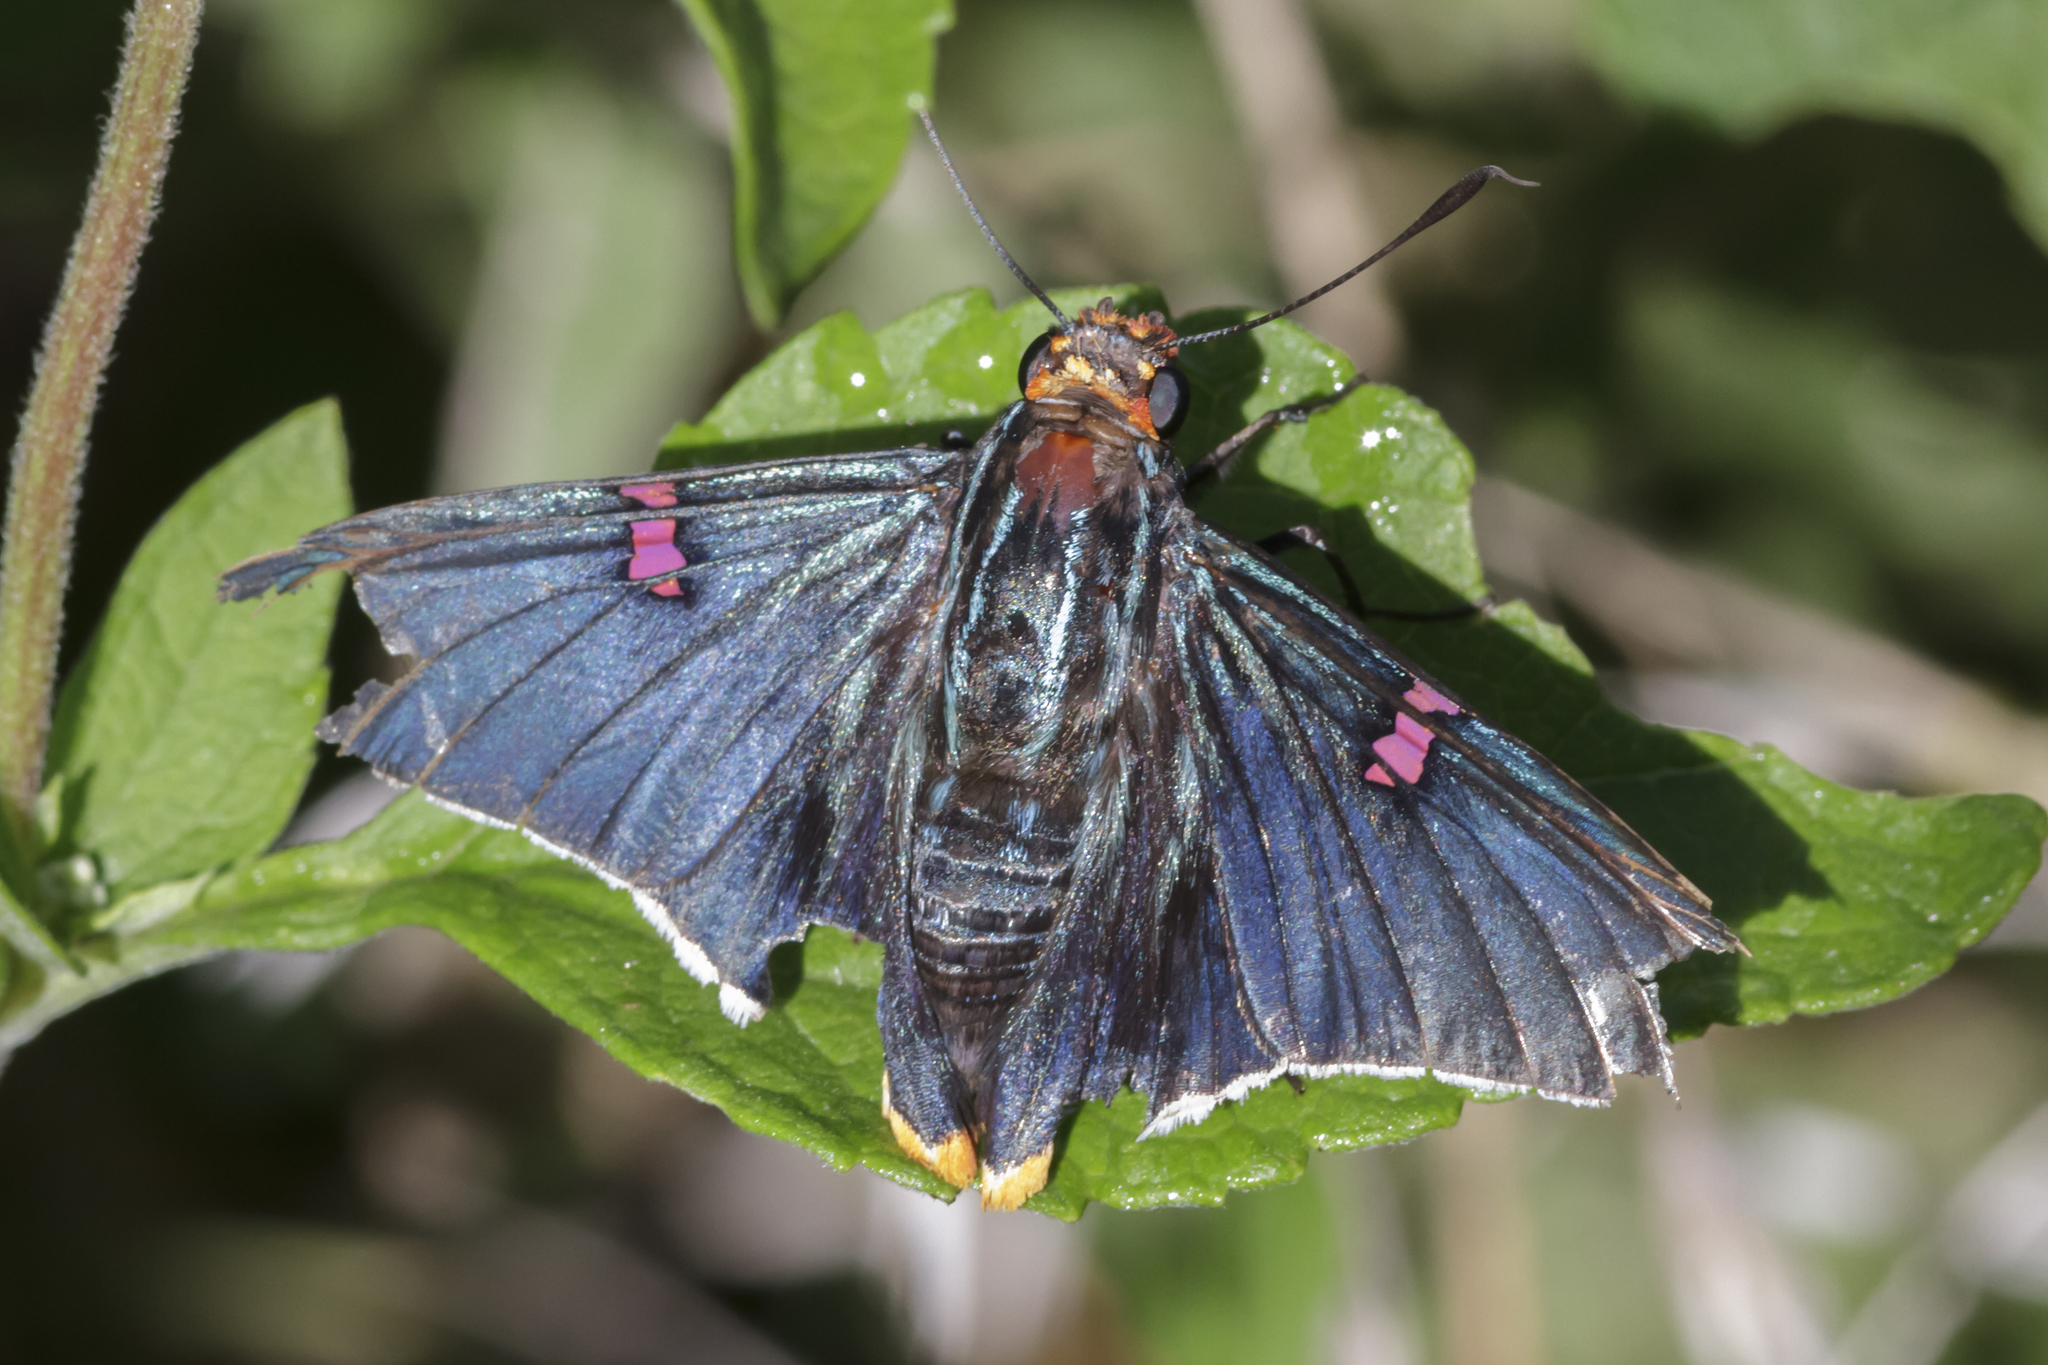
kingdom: Animalia
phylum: Arthropoda
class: Insecta
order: Lepidoptera
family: Hesperiidae
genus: Phocides
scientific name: Phocides polybius
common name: Guava skipper
